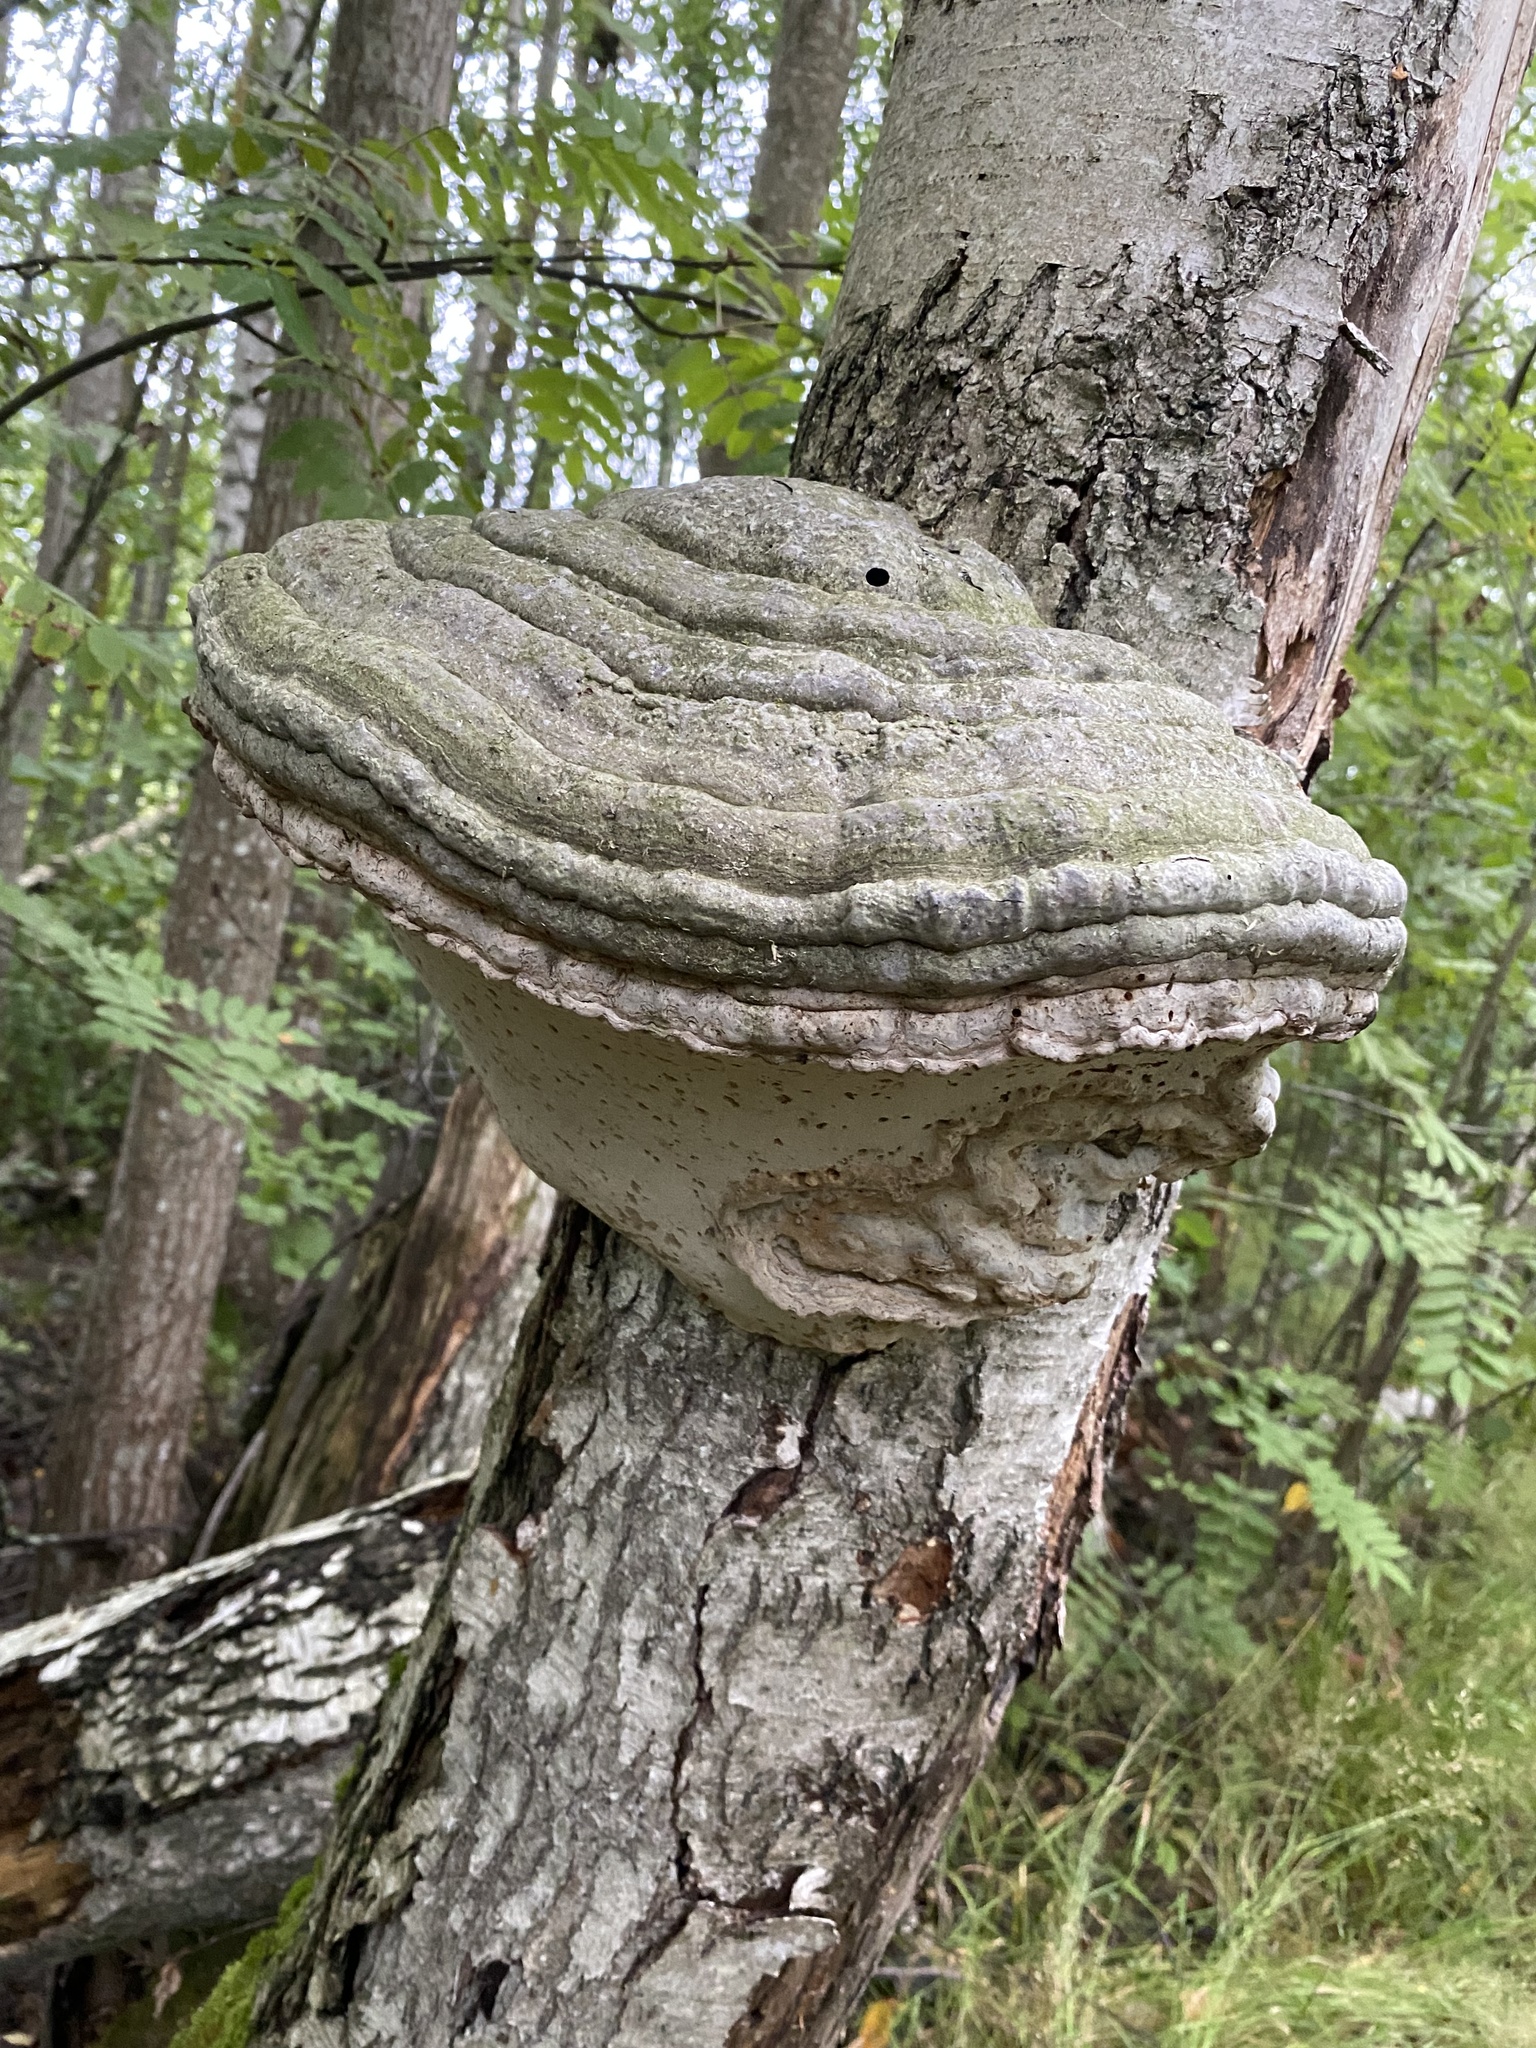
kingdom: Fungi
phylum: Basidiomycota
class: Agaricomycetes
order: Polyporales
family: Polyporaceae
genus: Fomes
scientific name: Fomes fomentarius
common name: Hoof fungus
